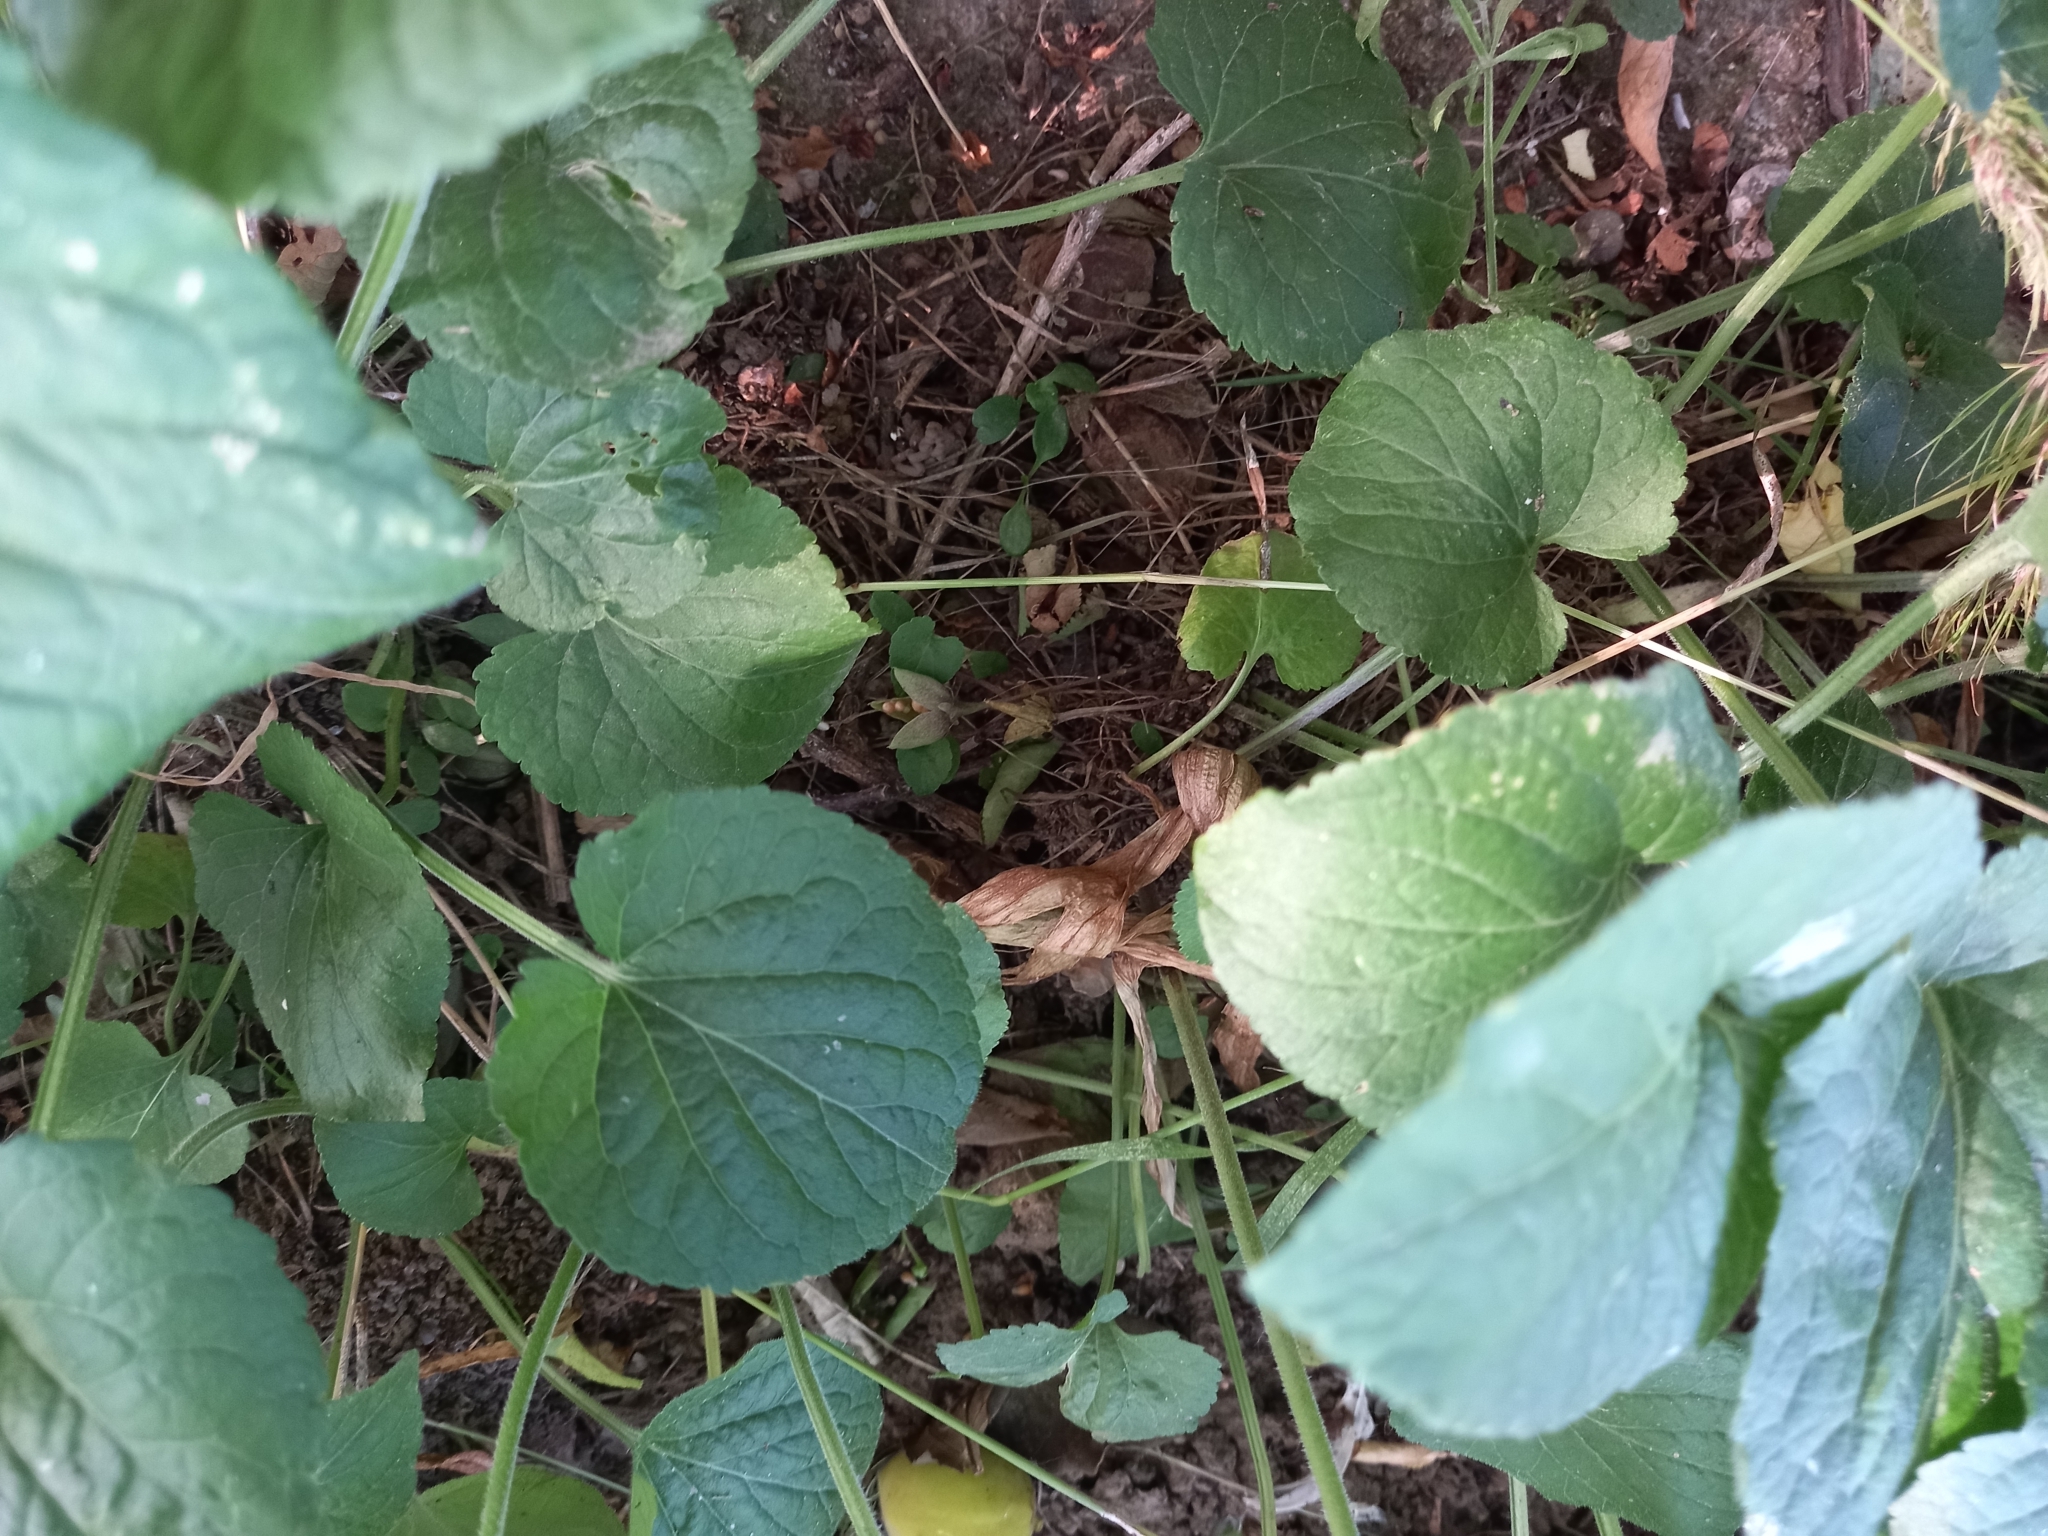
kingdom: Plantae
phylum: Tracheophyta
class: Magnoliopsida
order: Malpighiales
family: Violaceae
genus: Viola
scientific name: Viola suavis
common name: Russian violet
